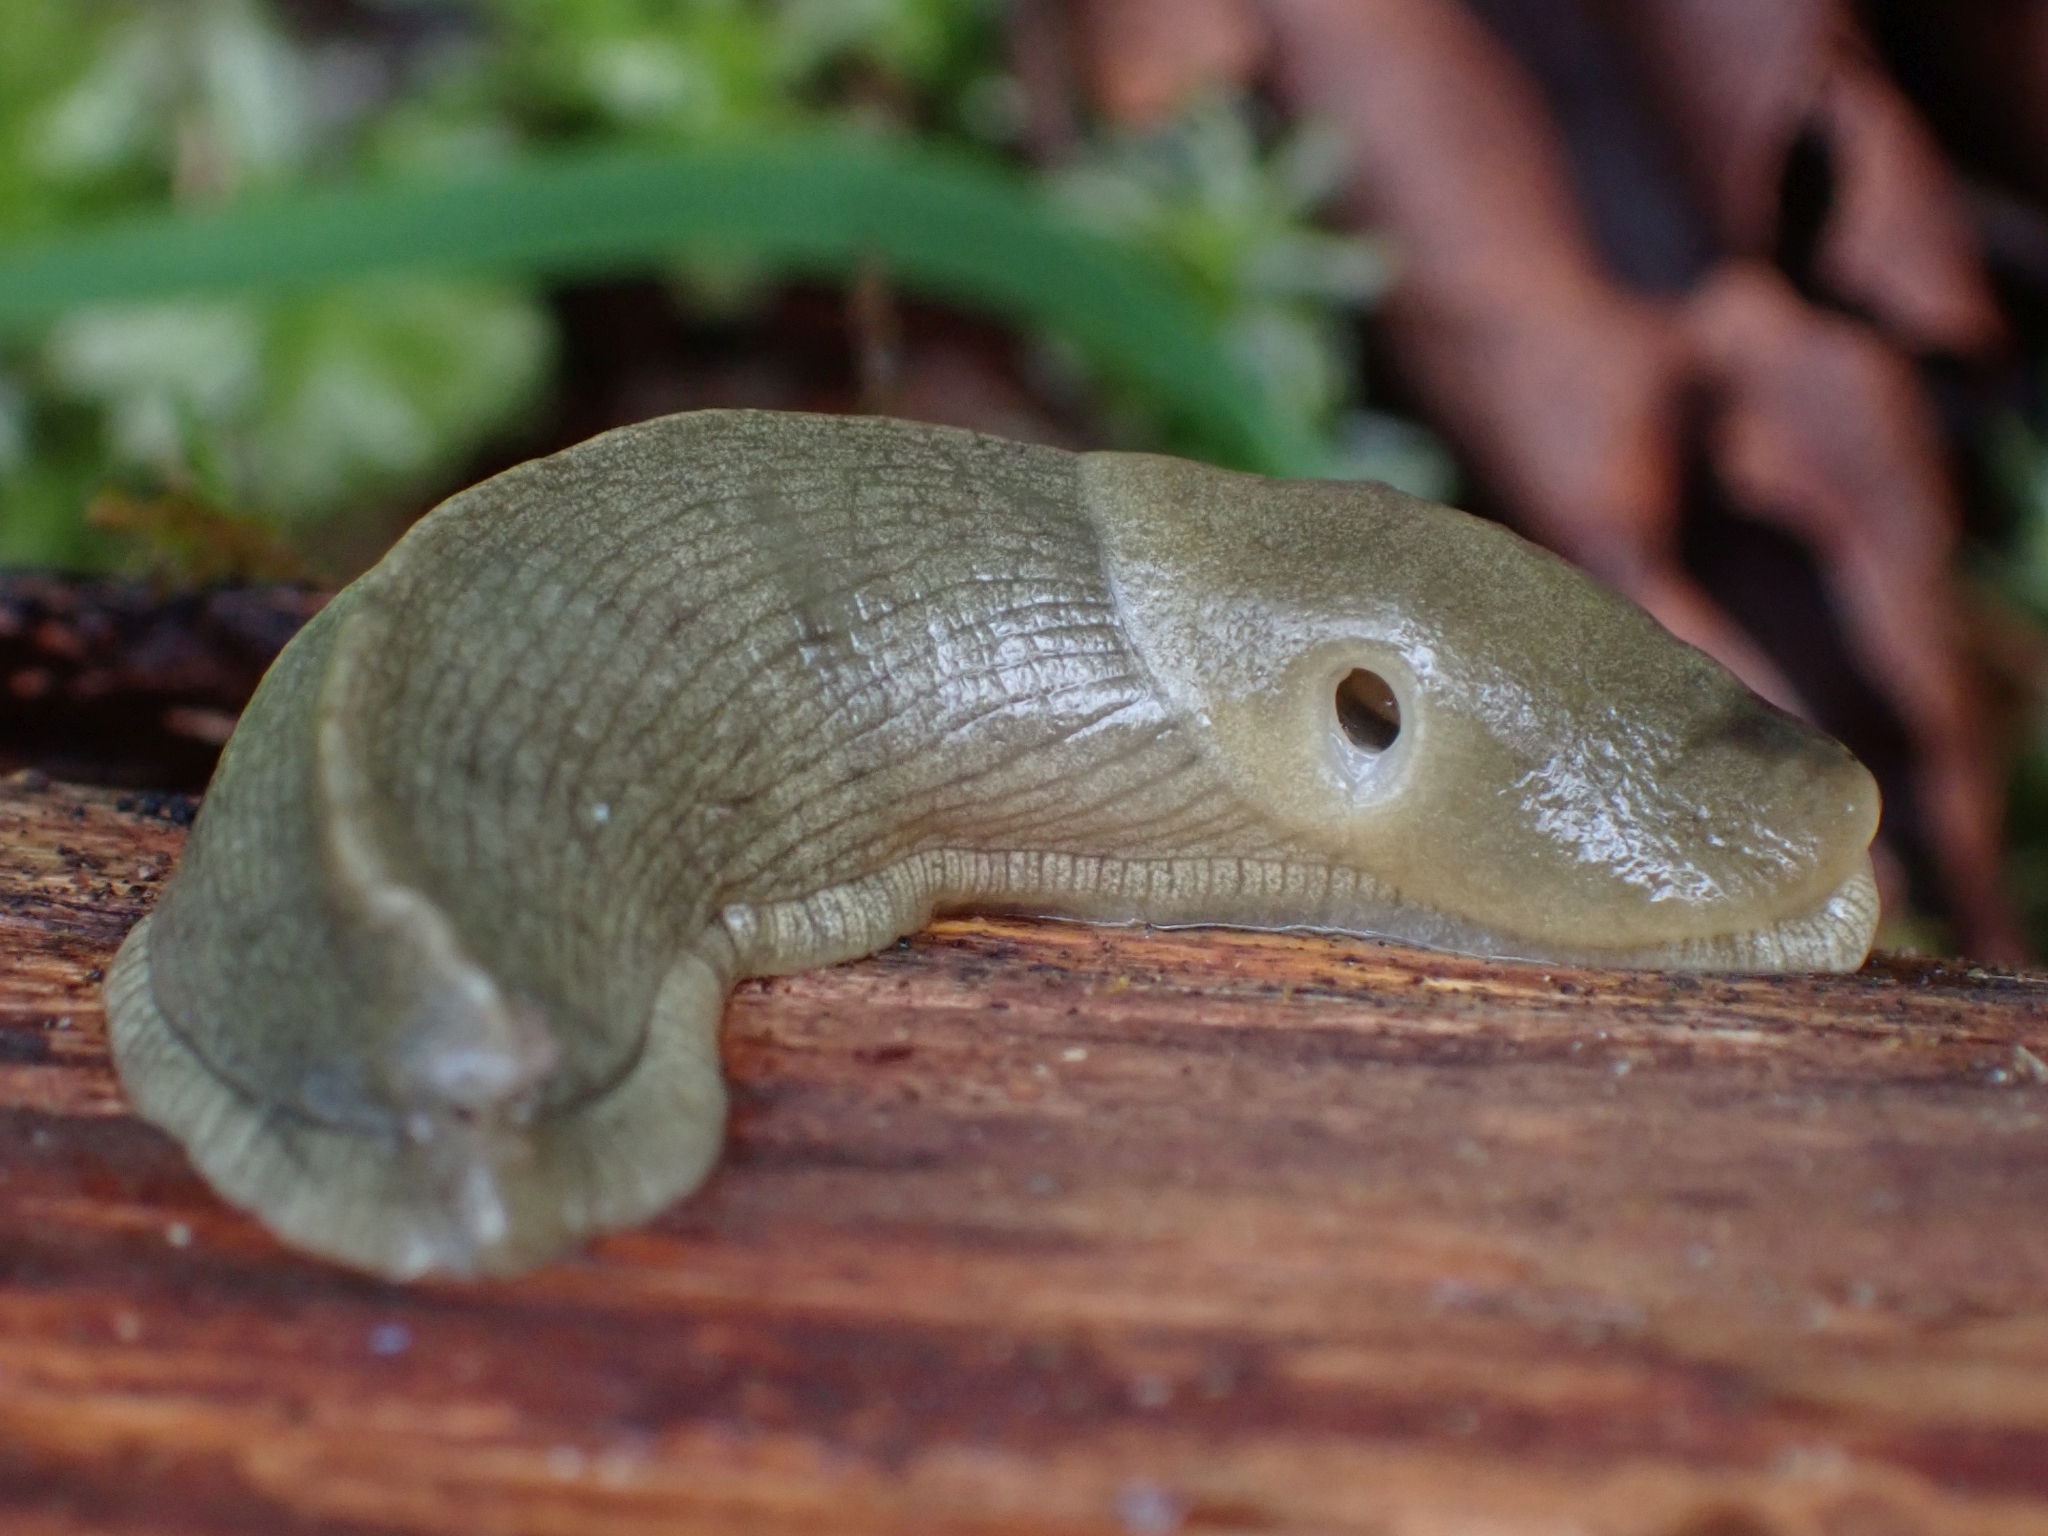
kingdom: Animalia
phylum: Mollusca
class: Gastropoda
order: Stylommatophora
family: Ariolimacidae
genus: Ariolimax
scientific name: Ariolimax columbianus
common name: Pacific banana slug
